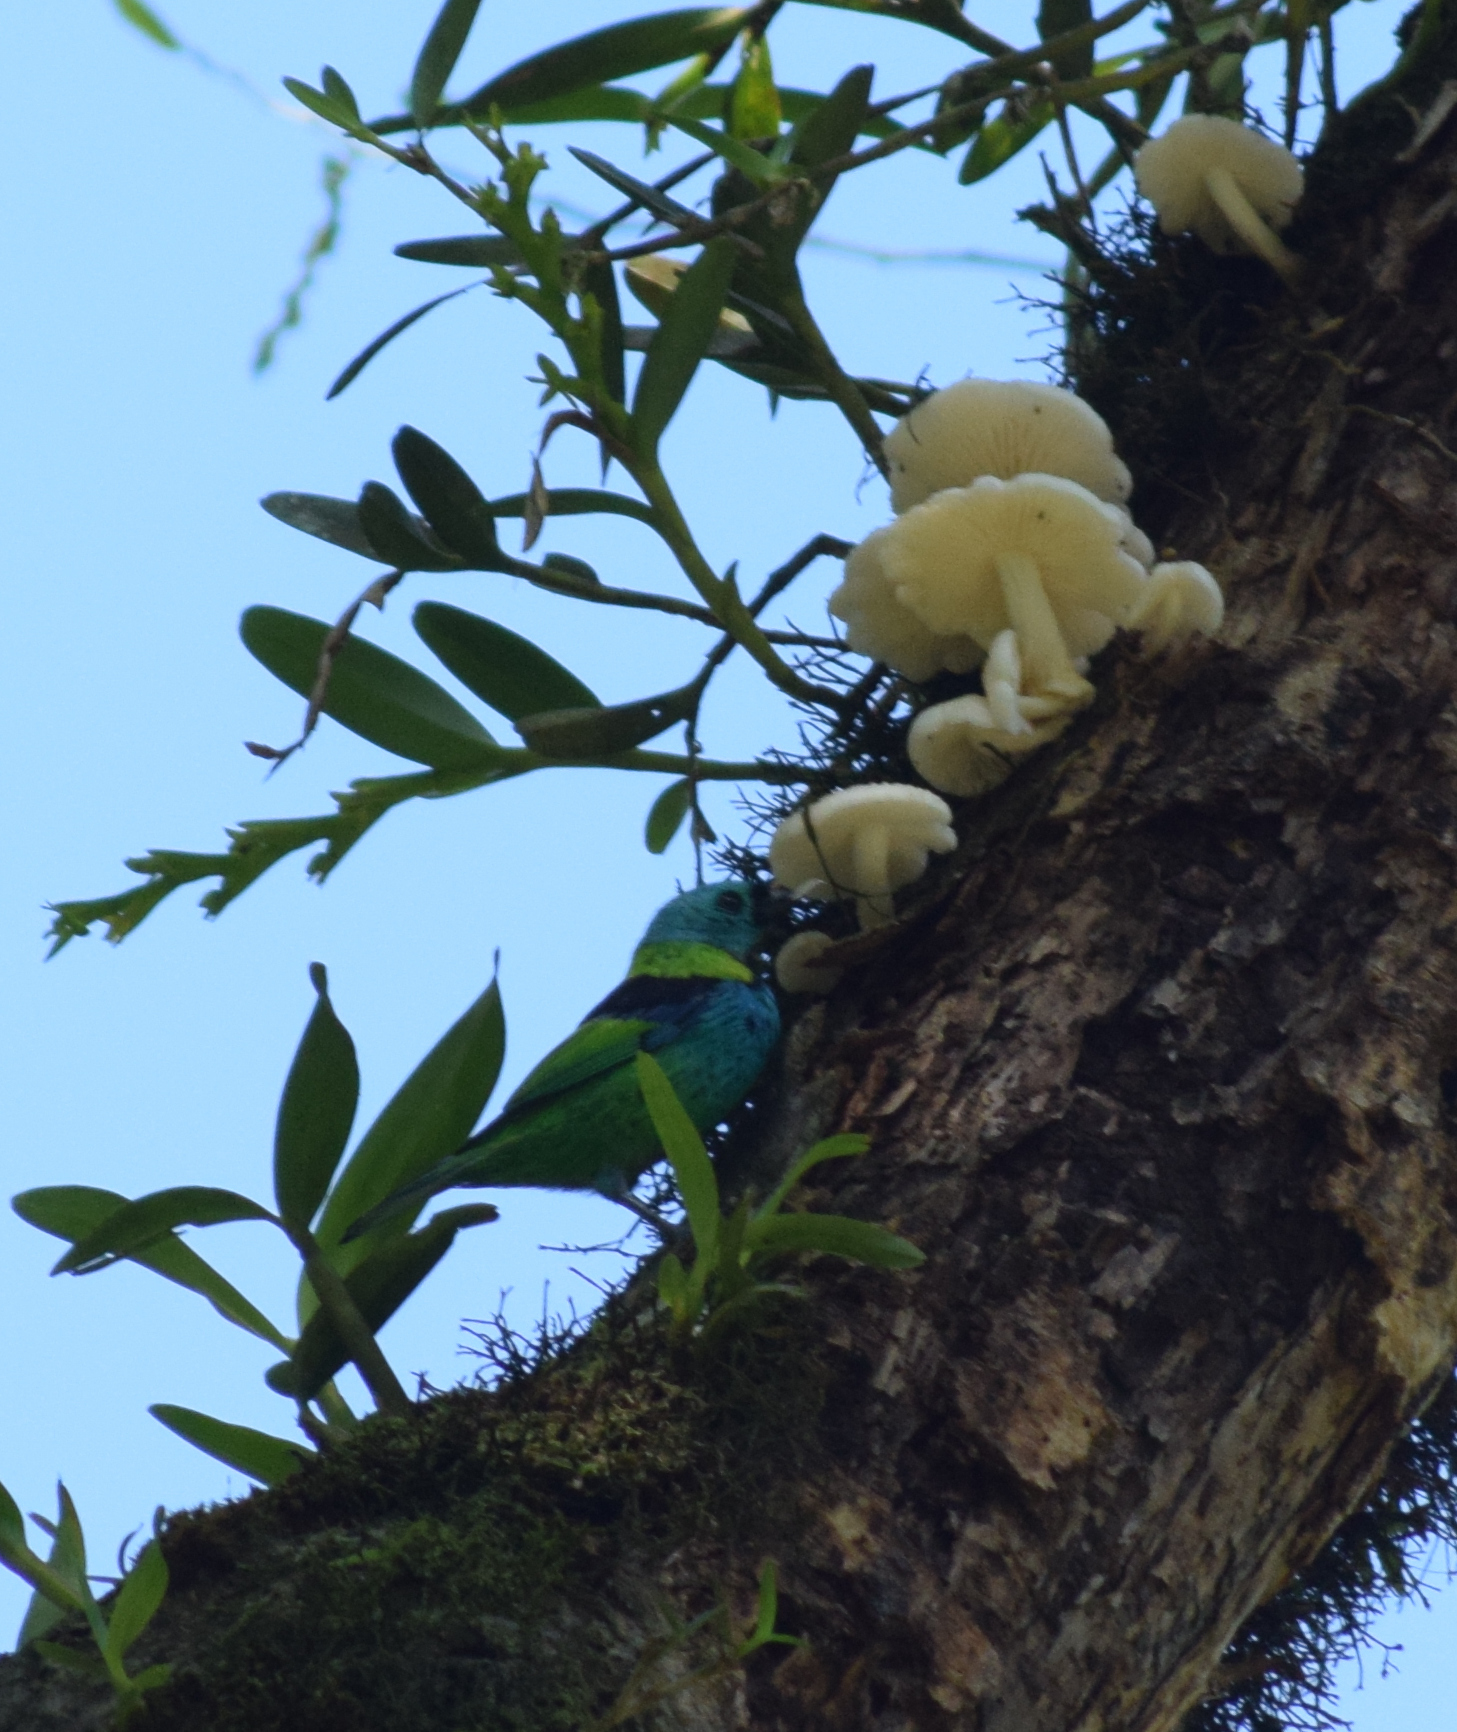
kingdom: Animalia
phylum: Chordata
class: Aves
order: Passeriformes
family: Thraupidae
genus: Tangara
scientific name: Tangara seledon
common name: Green-headed tanager
